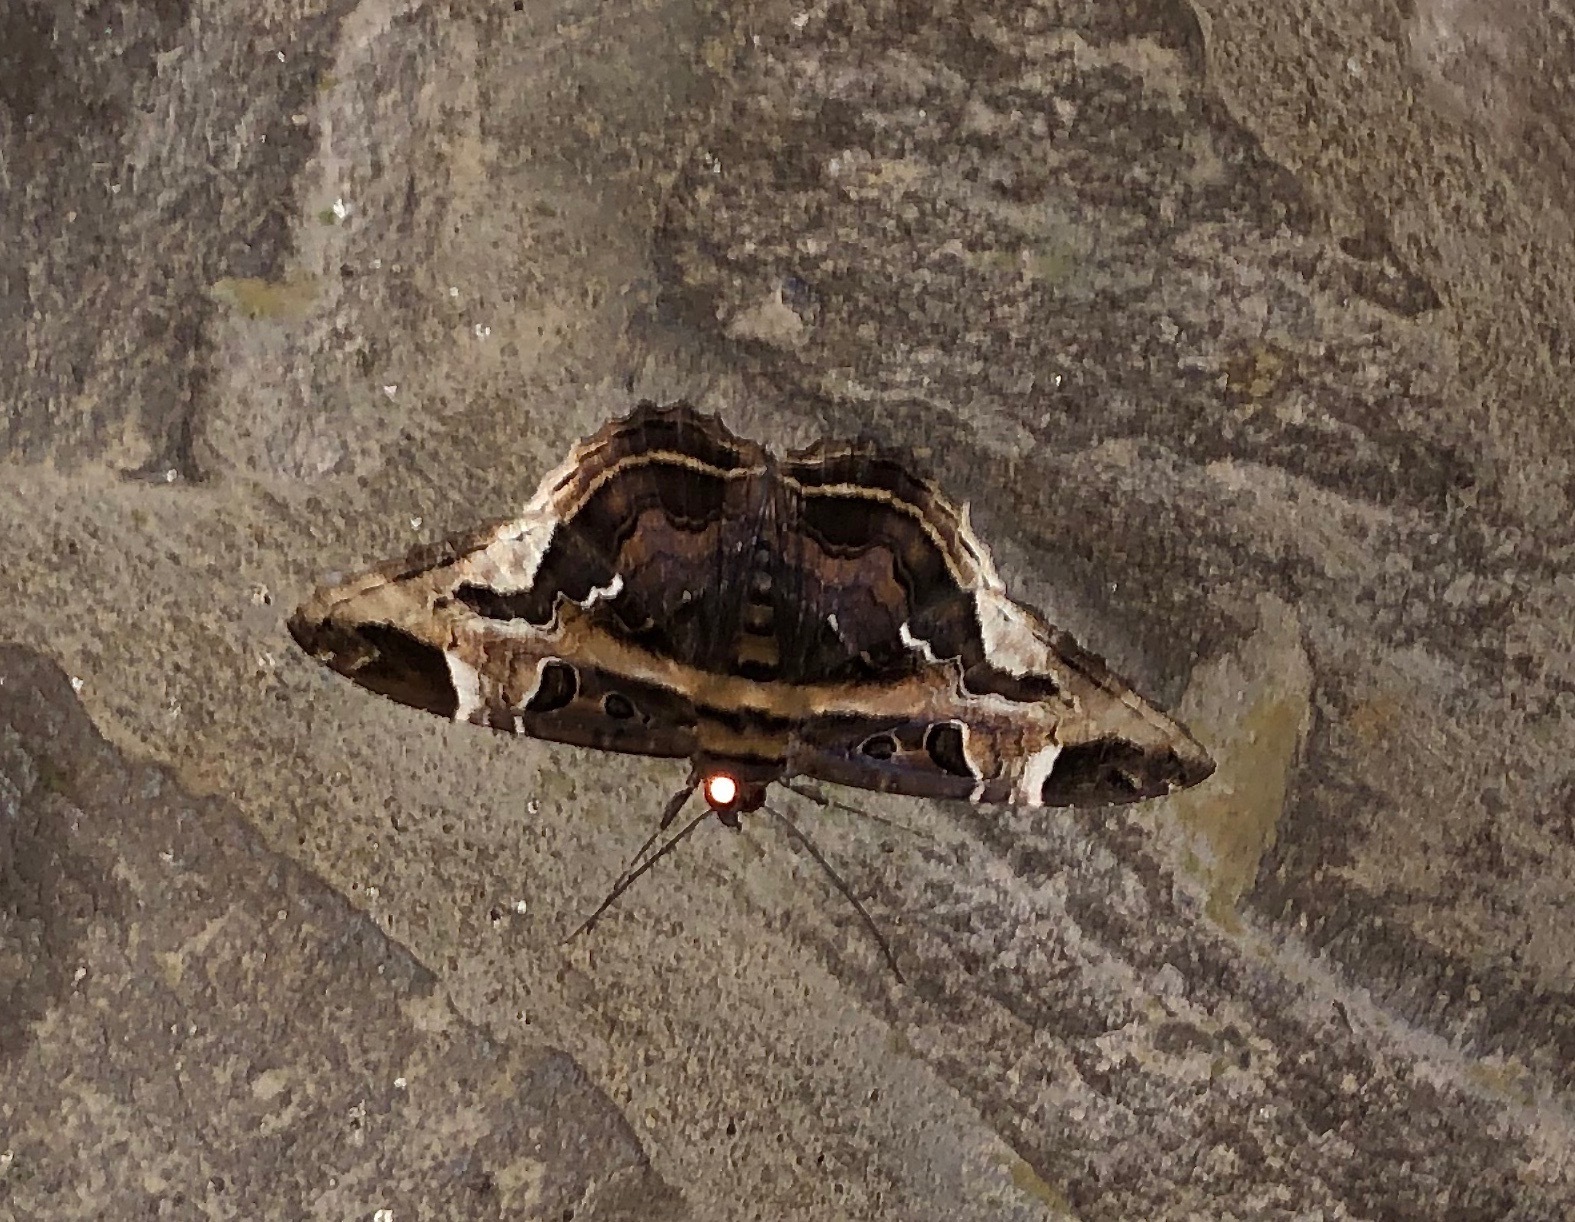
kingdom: Animalia
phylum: Arthropoda
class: Insecta
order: Lepidoptera
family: Erebidae
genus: Feigeria
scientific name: Feigeria herilia
